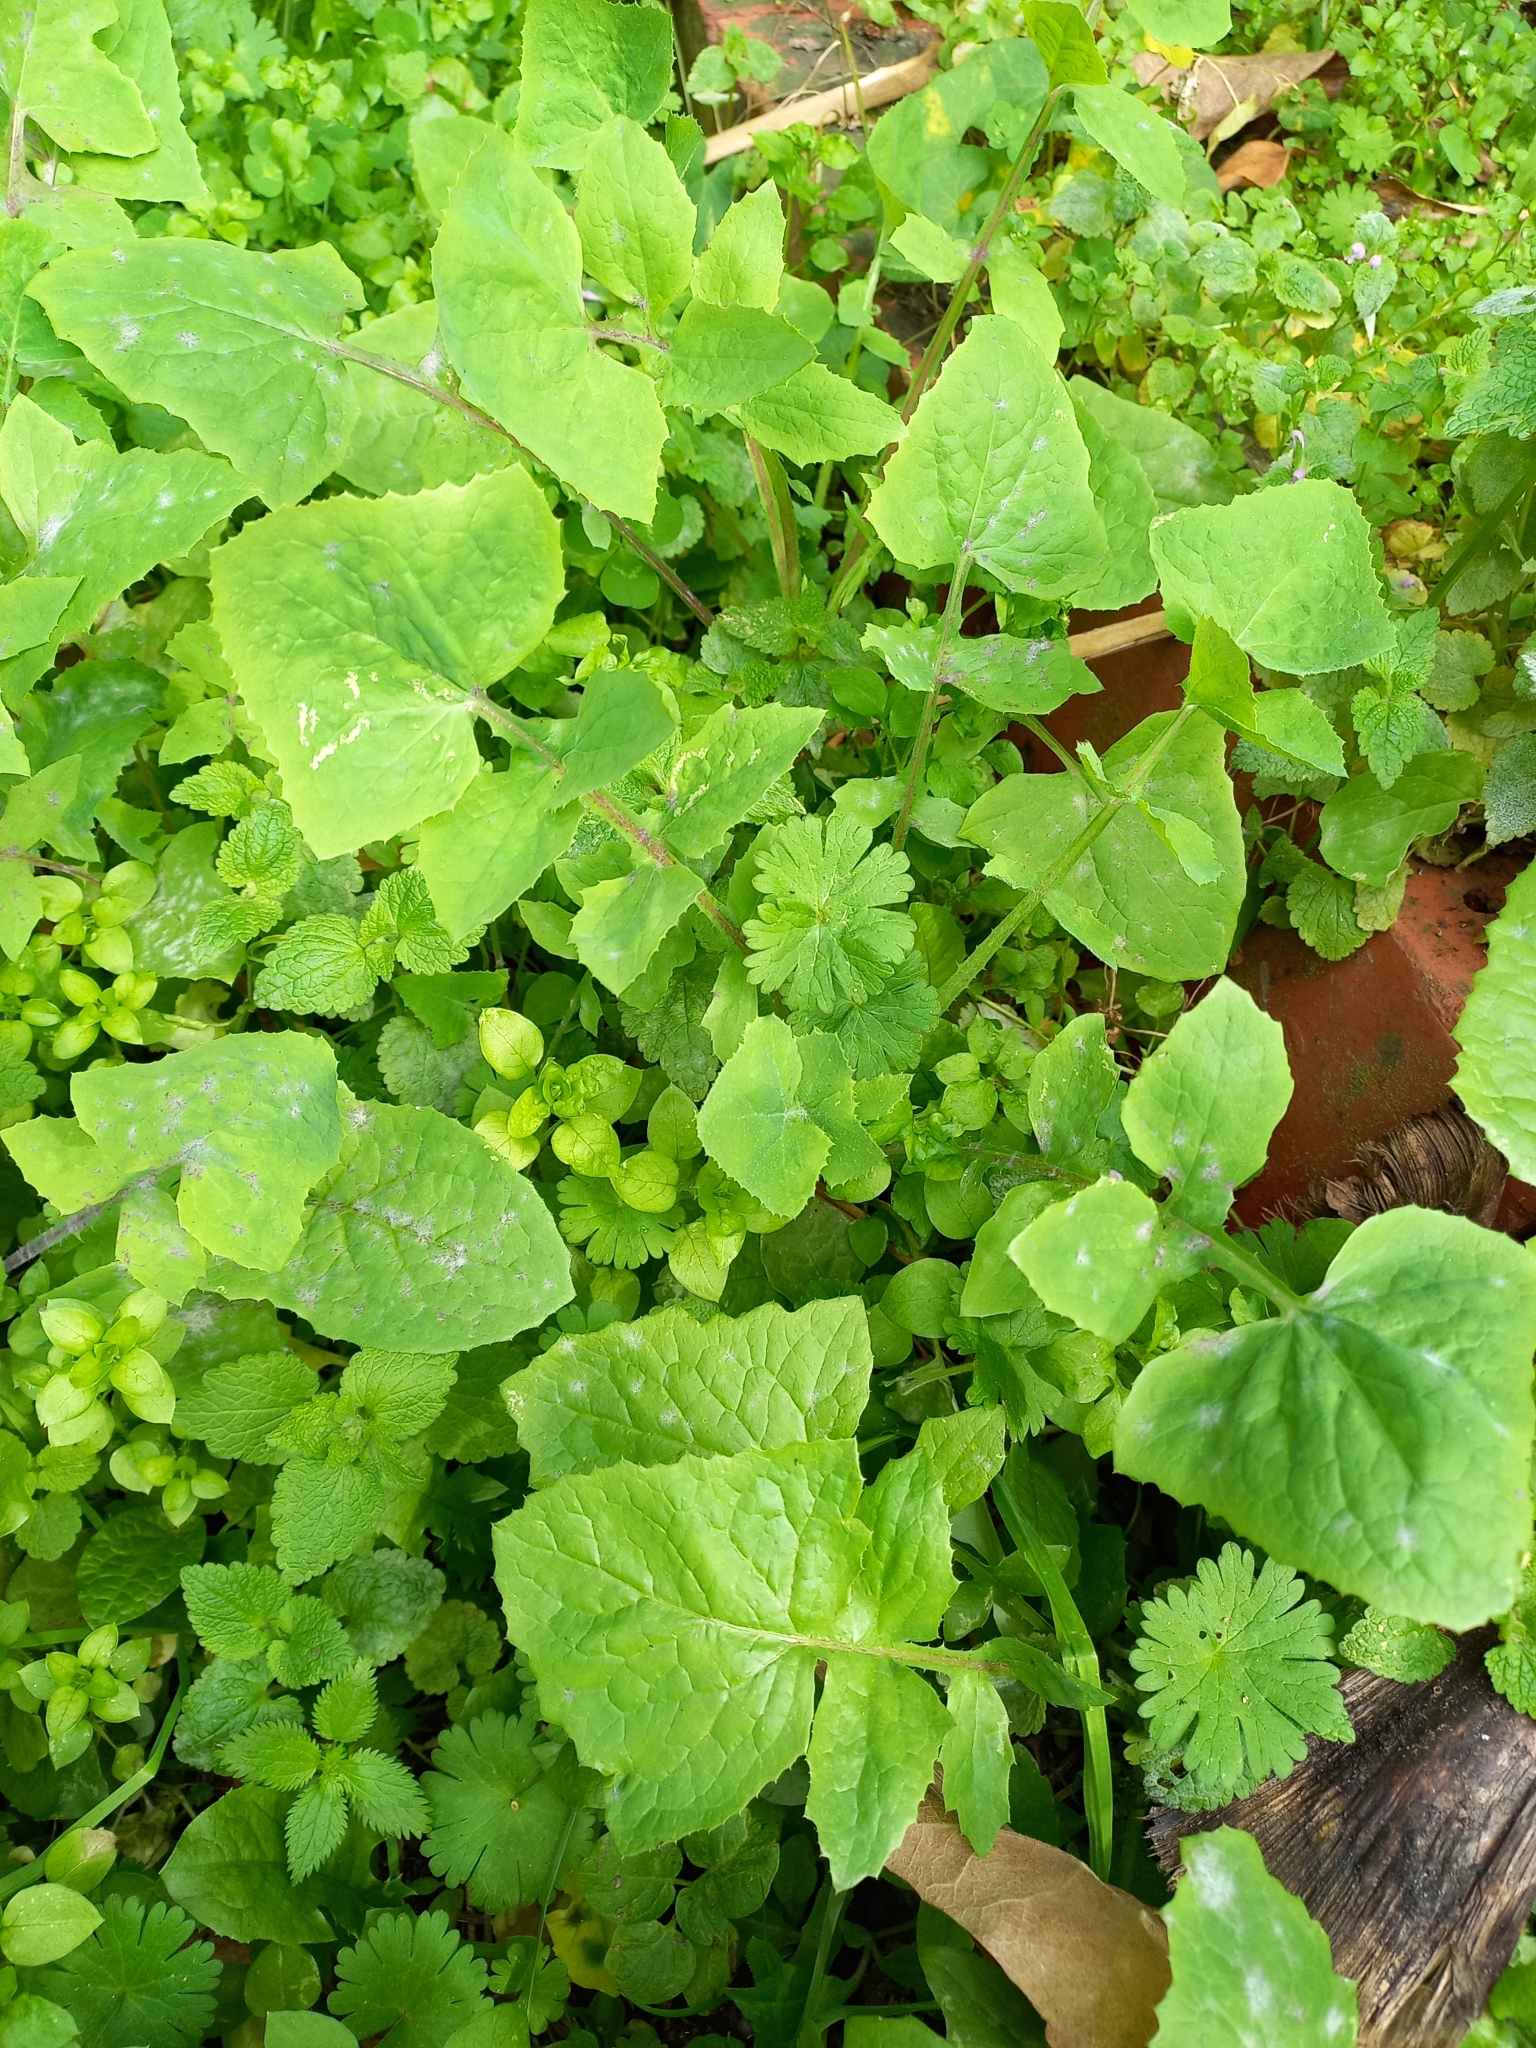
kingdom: Plantae
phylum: Tracheophyta
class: Magnoliopsida
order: Asterales
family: Asteraceae
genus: Sonchus
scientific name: Sonchus oleraceus
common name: Common sowthistle
